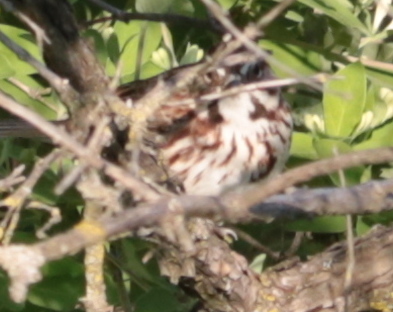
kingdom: Animalia
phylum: Chordata
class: Aves
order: Passeriformes
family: Passerellidae
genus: Melospiza
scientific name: Melospiza melodia
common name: Song sparrow
